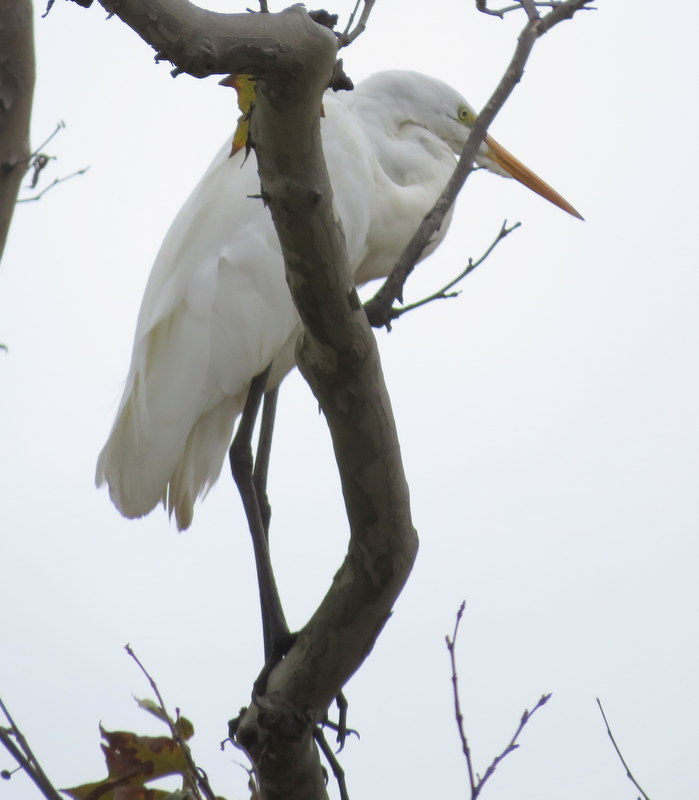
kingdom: Animalia
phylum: Chordata
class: Aves
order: Pelecaniformes
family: Ardeidae
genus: Ardea
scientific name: Ardea alba
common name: Great egret
